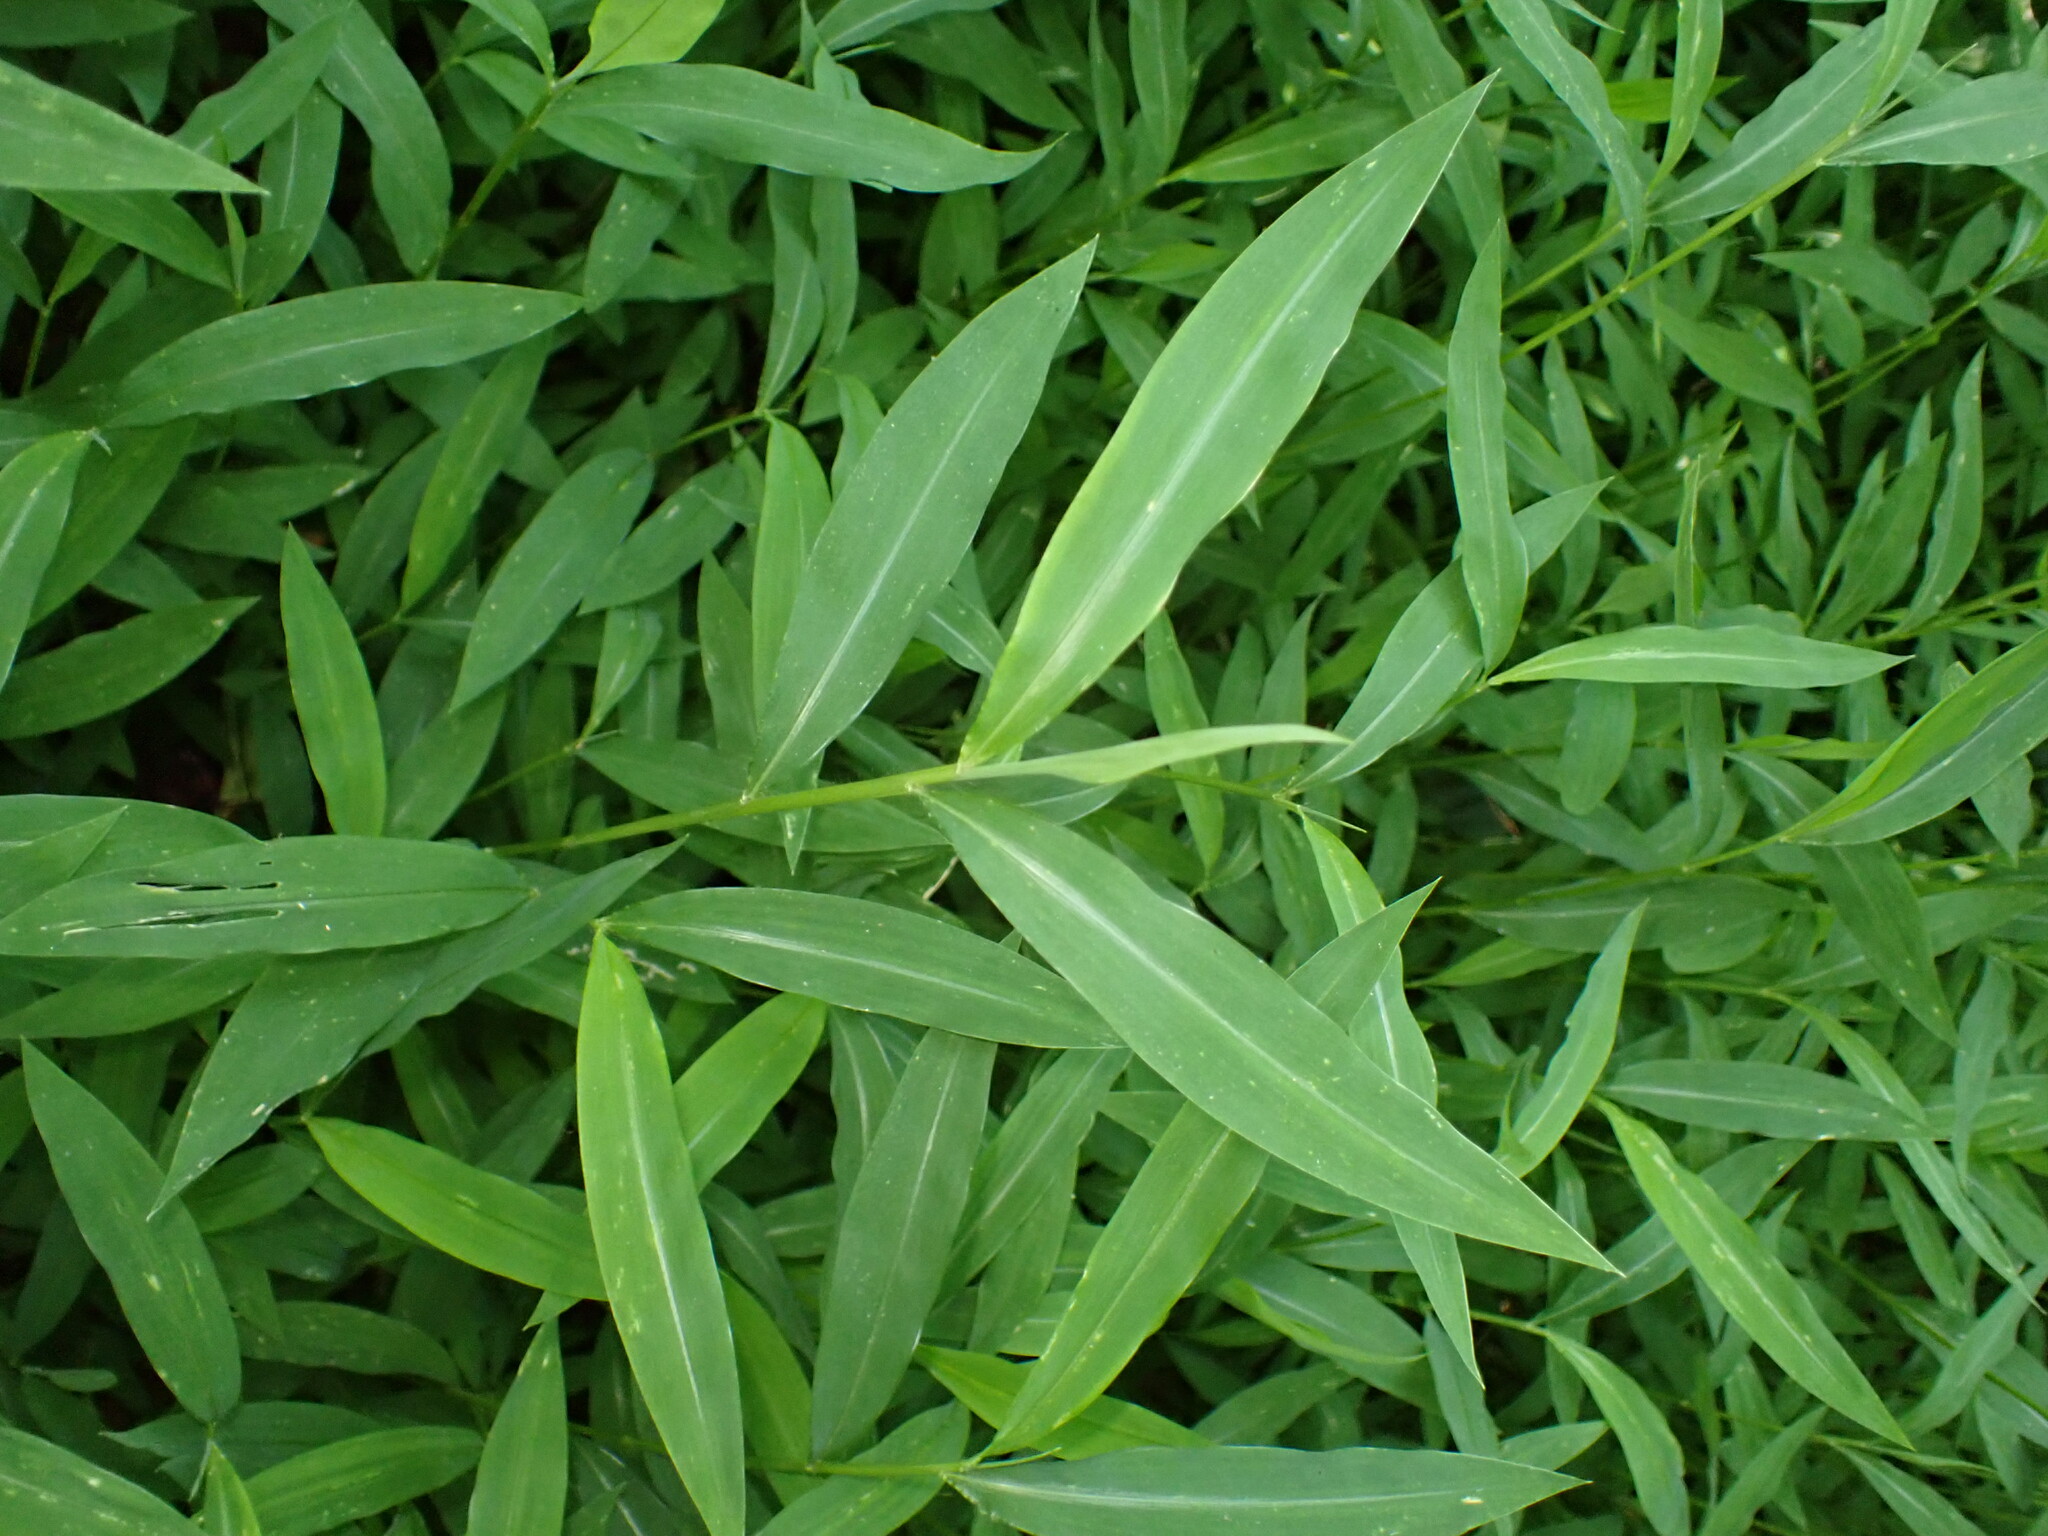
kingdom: Plantae
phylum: Tracheophyta
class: Liliopsida
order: Poales
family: Poaceae
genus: Microstegium
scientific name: Microstegium vimineum
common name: Japanese stiltgrass
